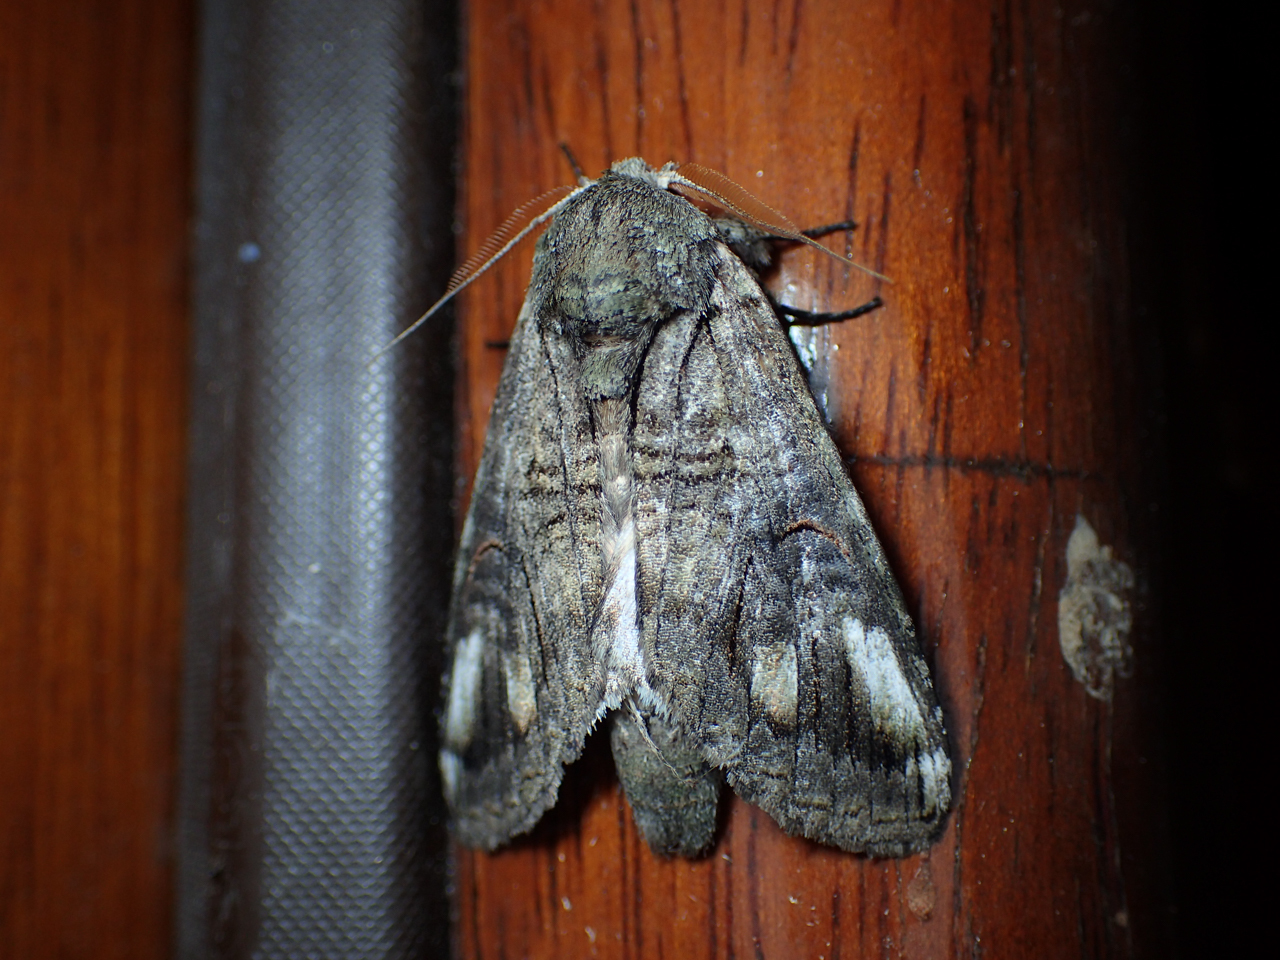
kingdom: Animalia
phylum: Arthropoda
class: Insecta
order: Lepidoptera
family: Notodontidae
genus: Heterocampa
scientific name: Heterocampa obliqua
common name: Oblique heterocampa
